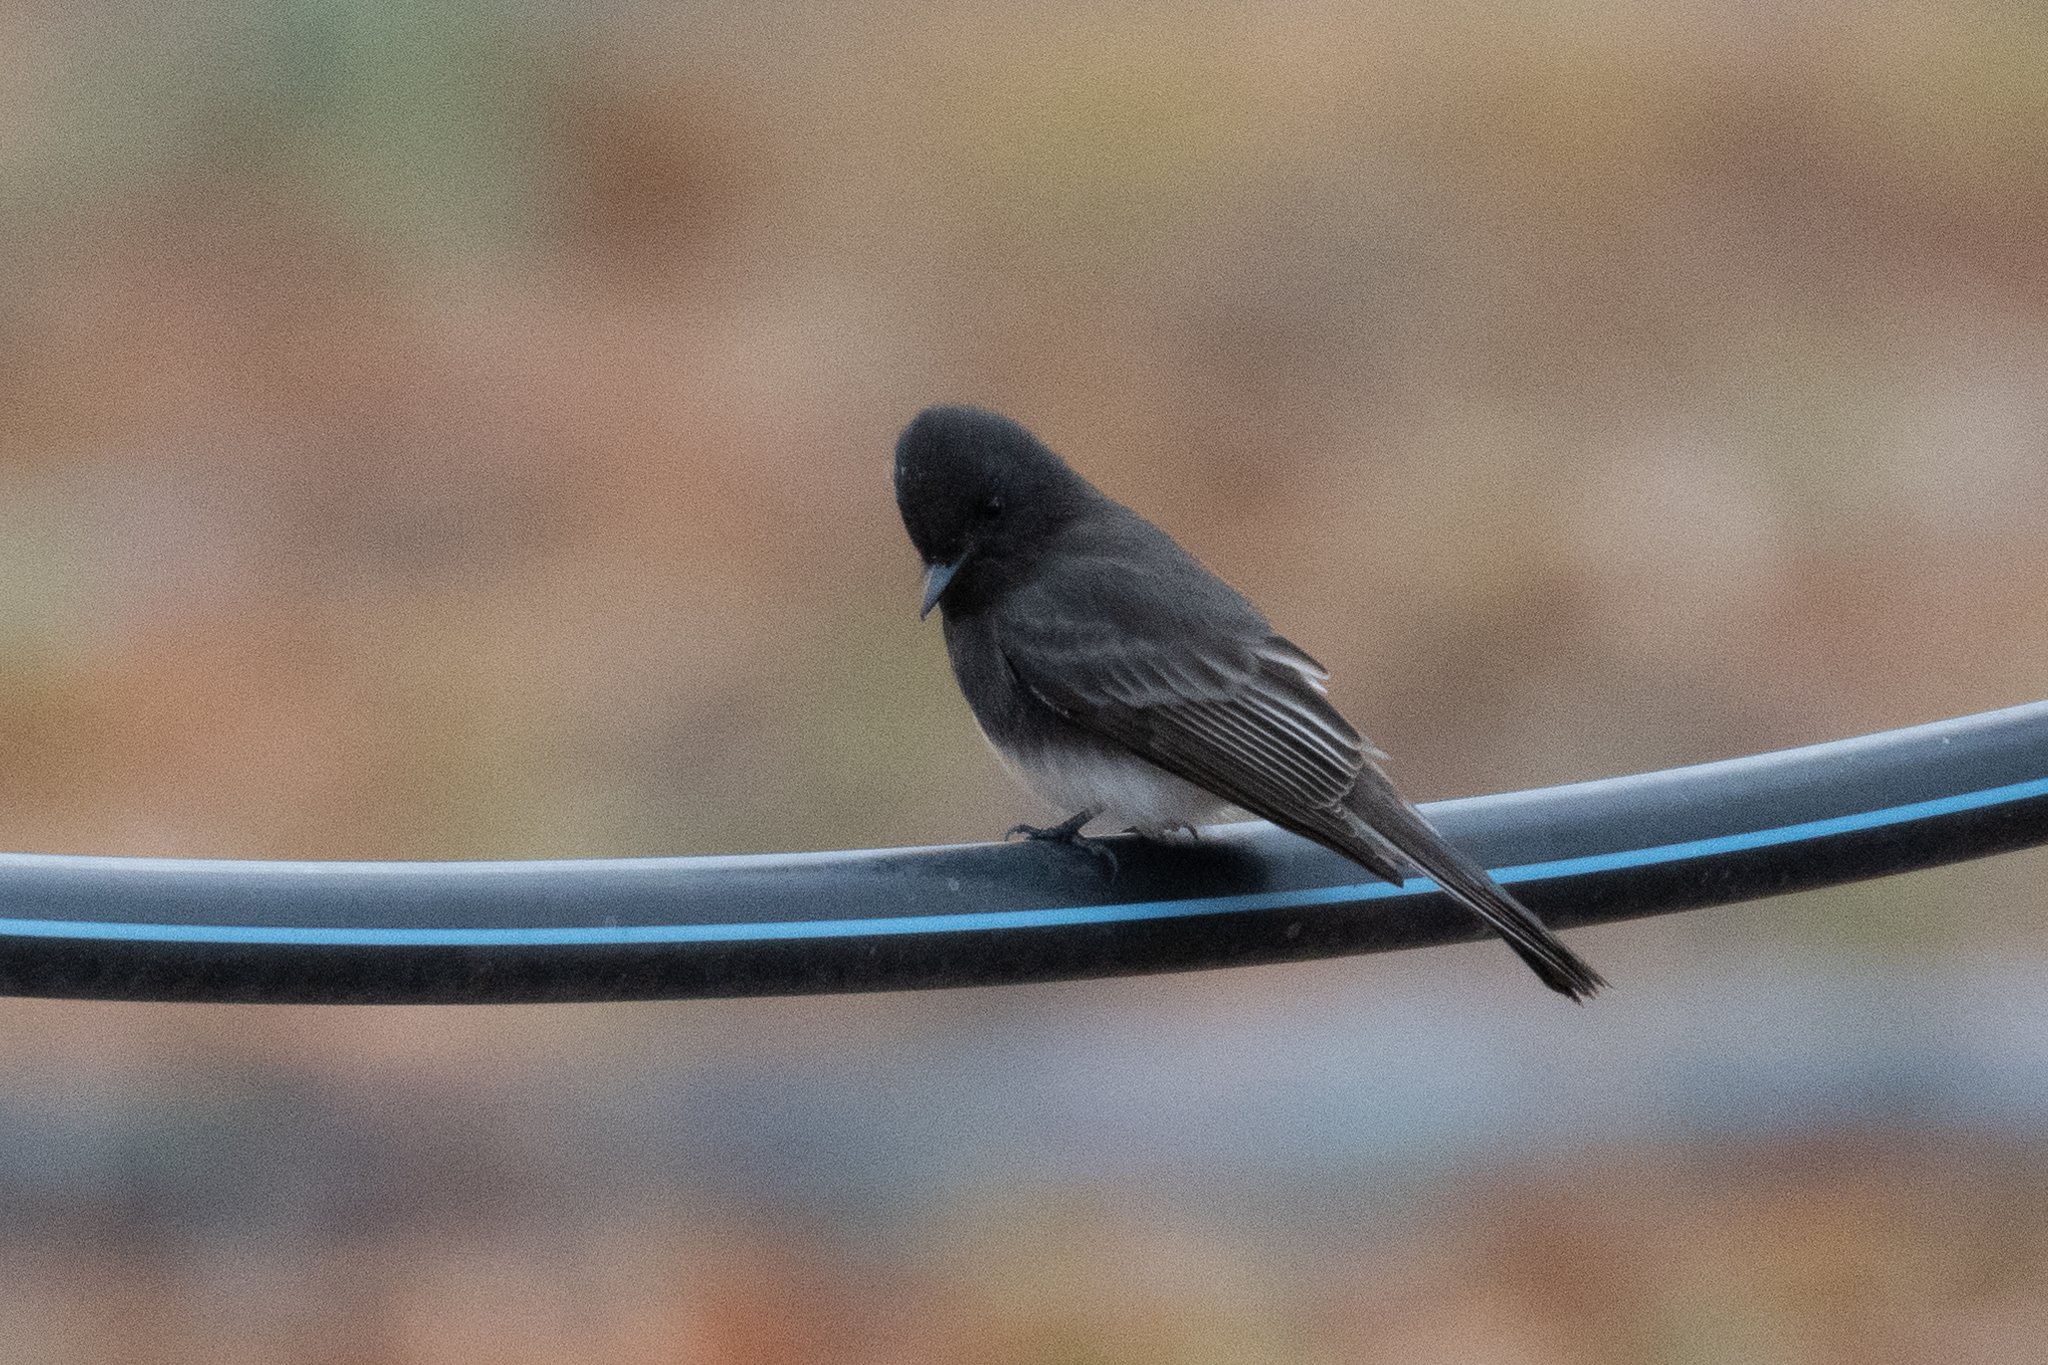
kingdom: Animalia
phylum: Chordata
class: Aves
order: Passeriformes
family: Tyrannidae
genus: Sayornis
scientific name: Sayornis nigricans
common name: Black phoebe
